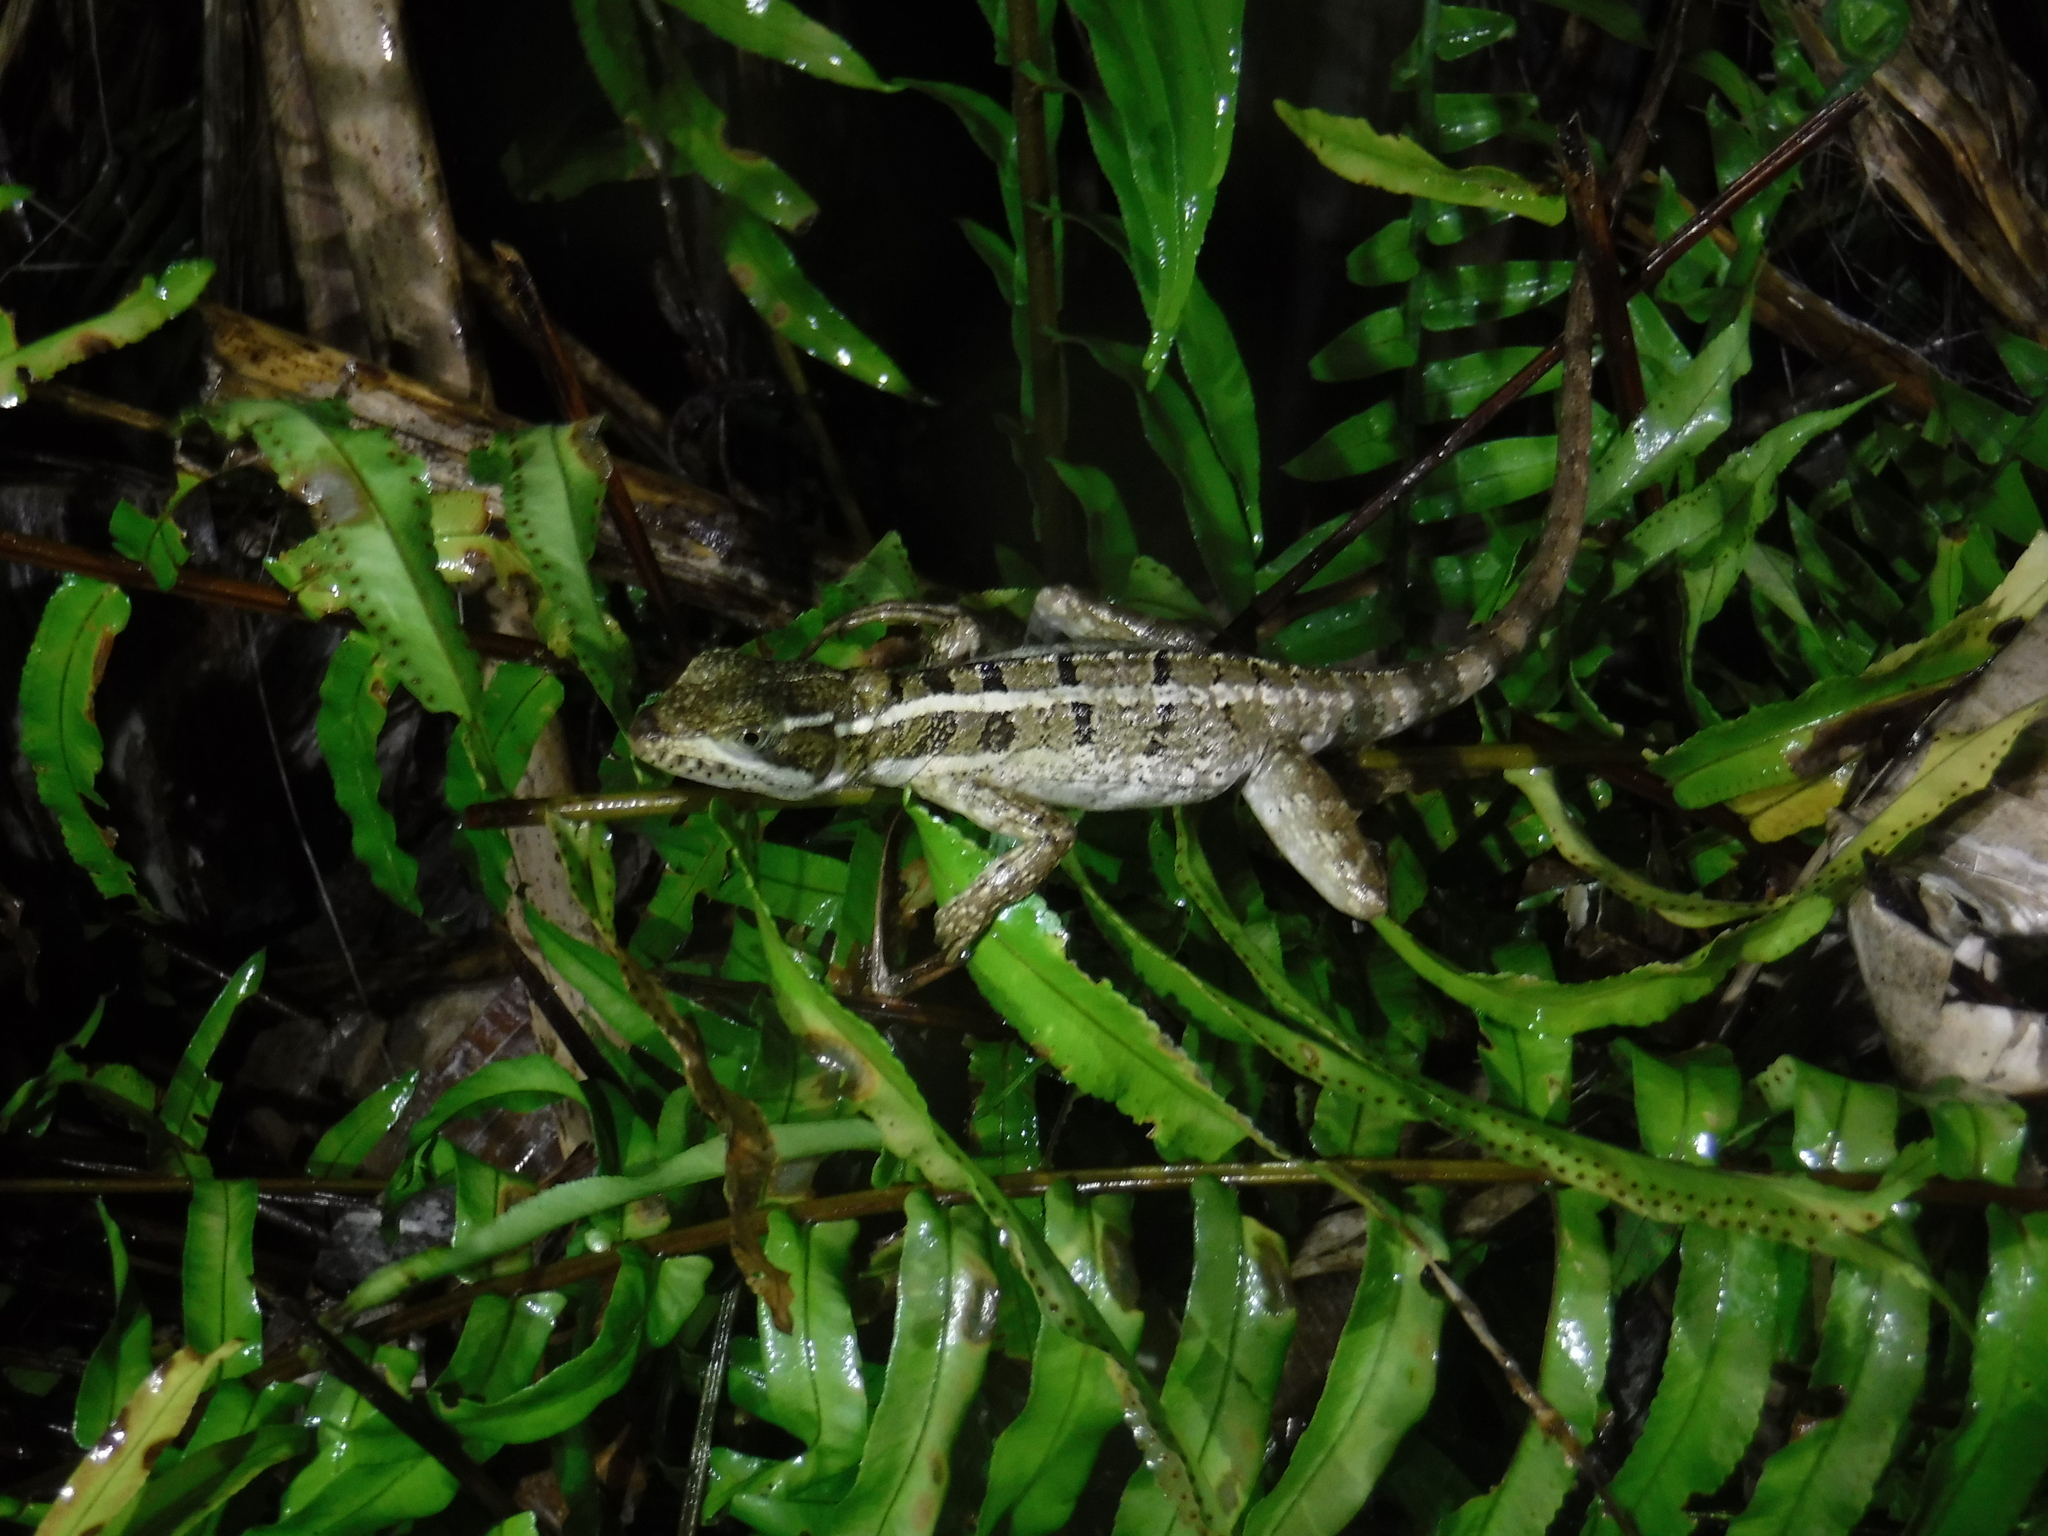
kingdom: Animalia
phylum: Chordata
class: Squamata
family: Corytophanidae
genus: Basiliscus
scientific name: Basiliscus vittatus
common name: Brown basilisk
